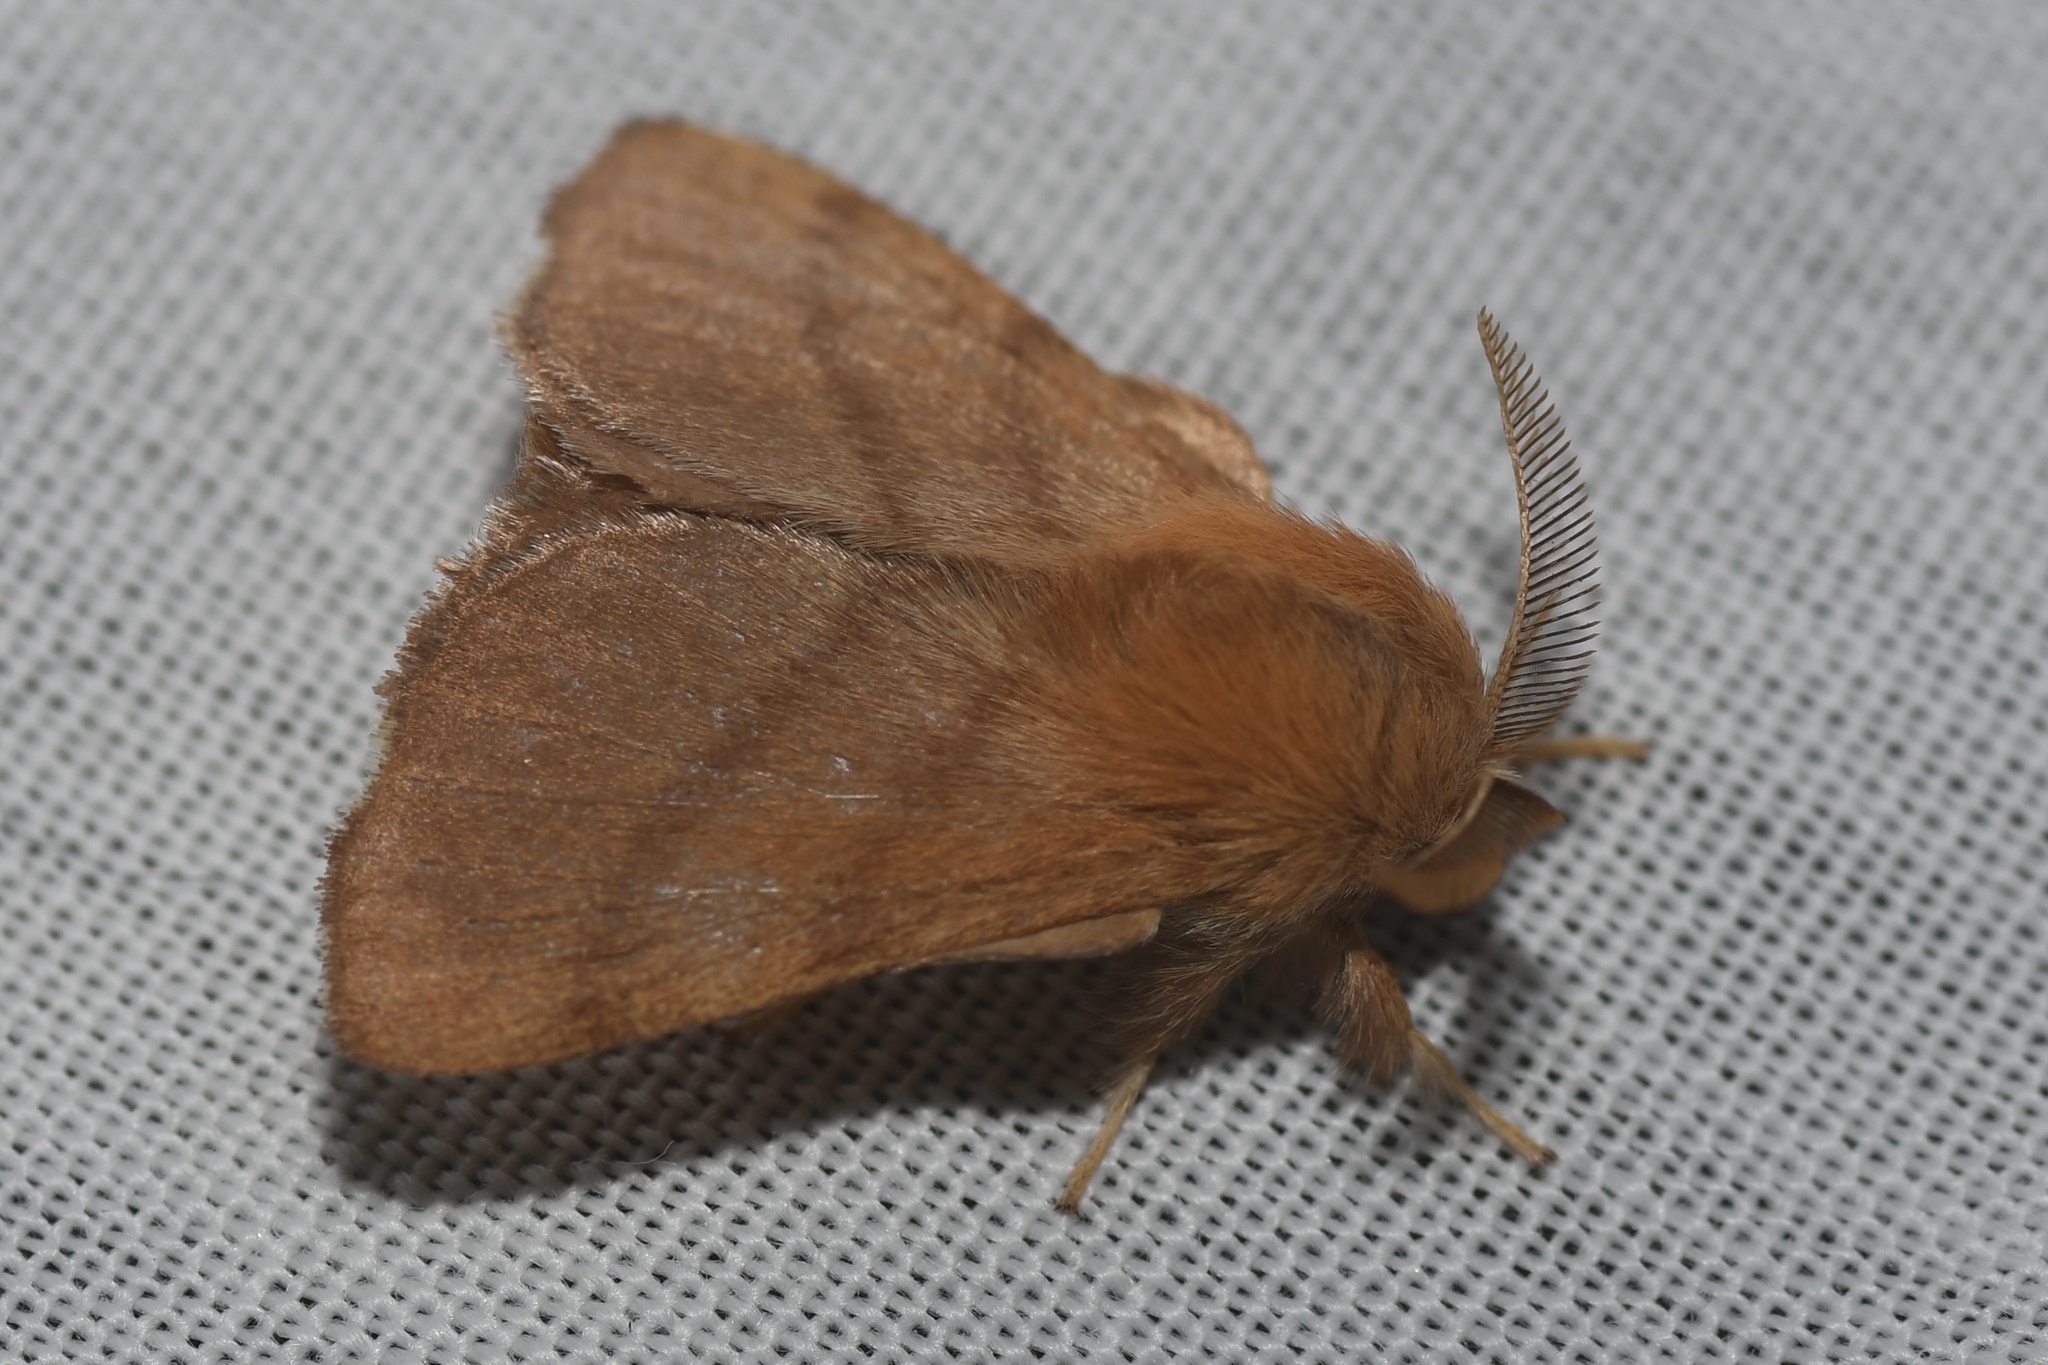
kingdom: Animalia
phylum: Arthropoda
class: Insecta
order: Lepidoptera
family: Lasiocampidae
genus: Malacosoma
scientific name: Malacosoma disstria
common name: Forest tent caterpillar
